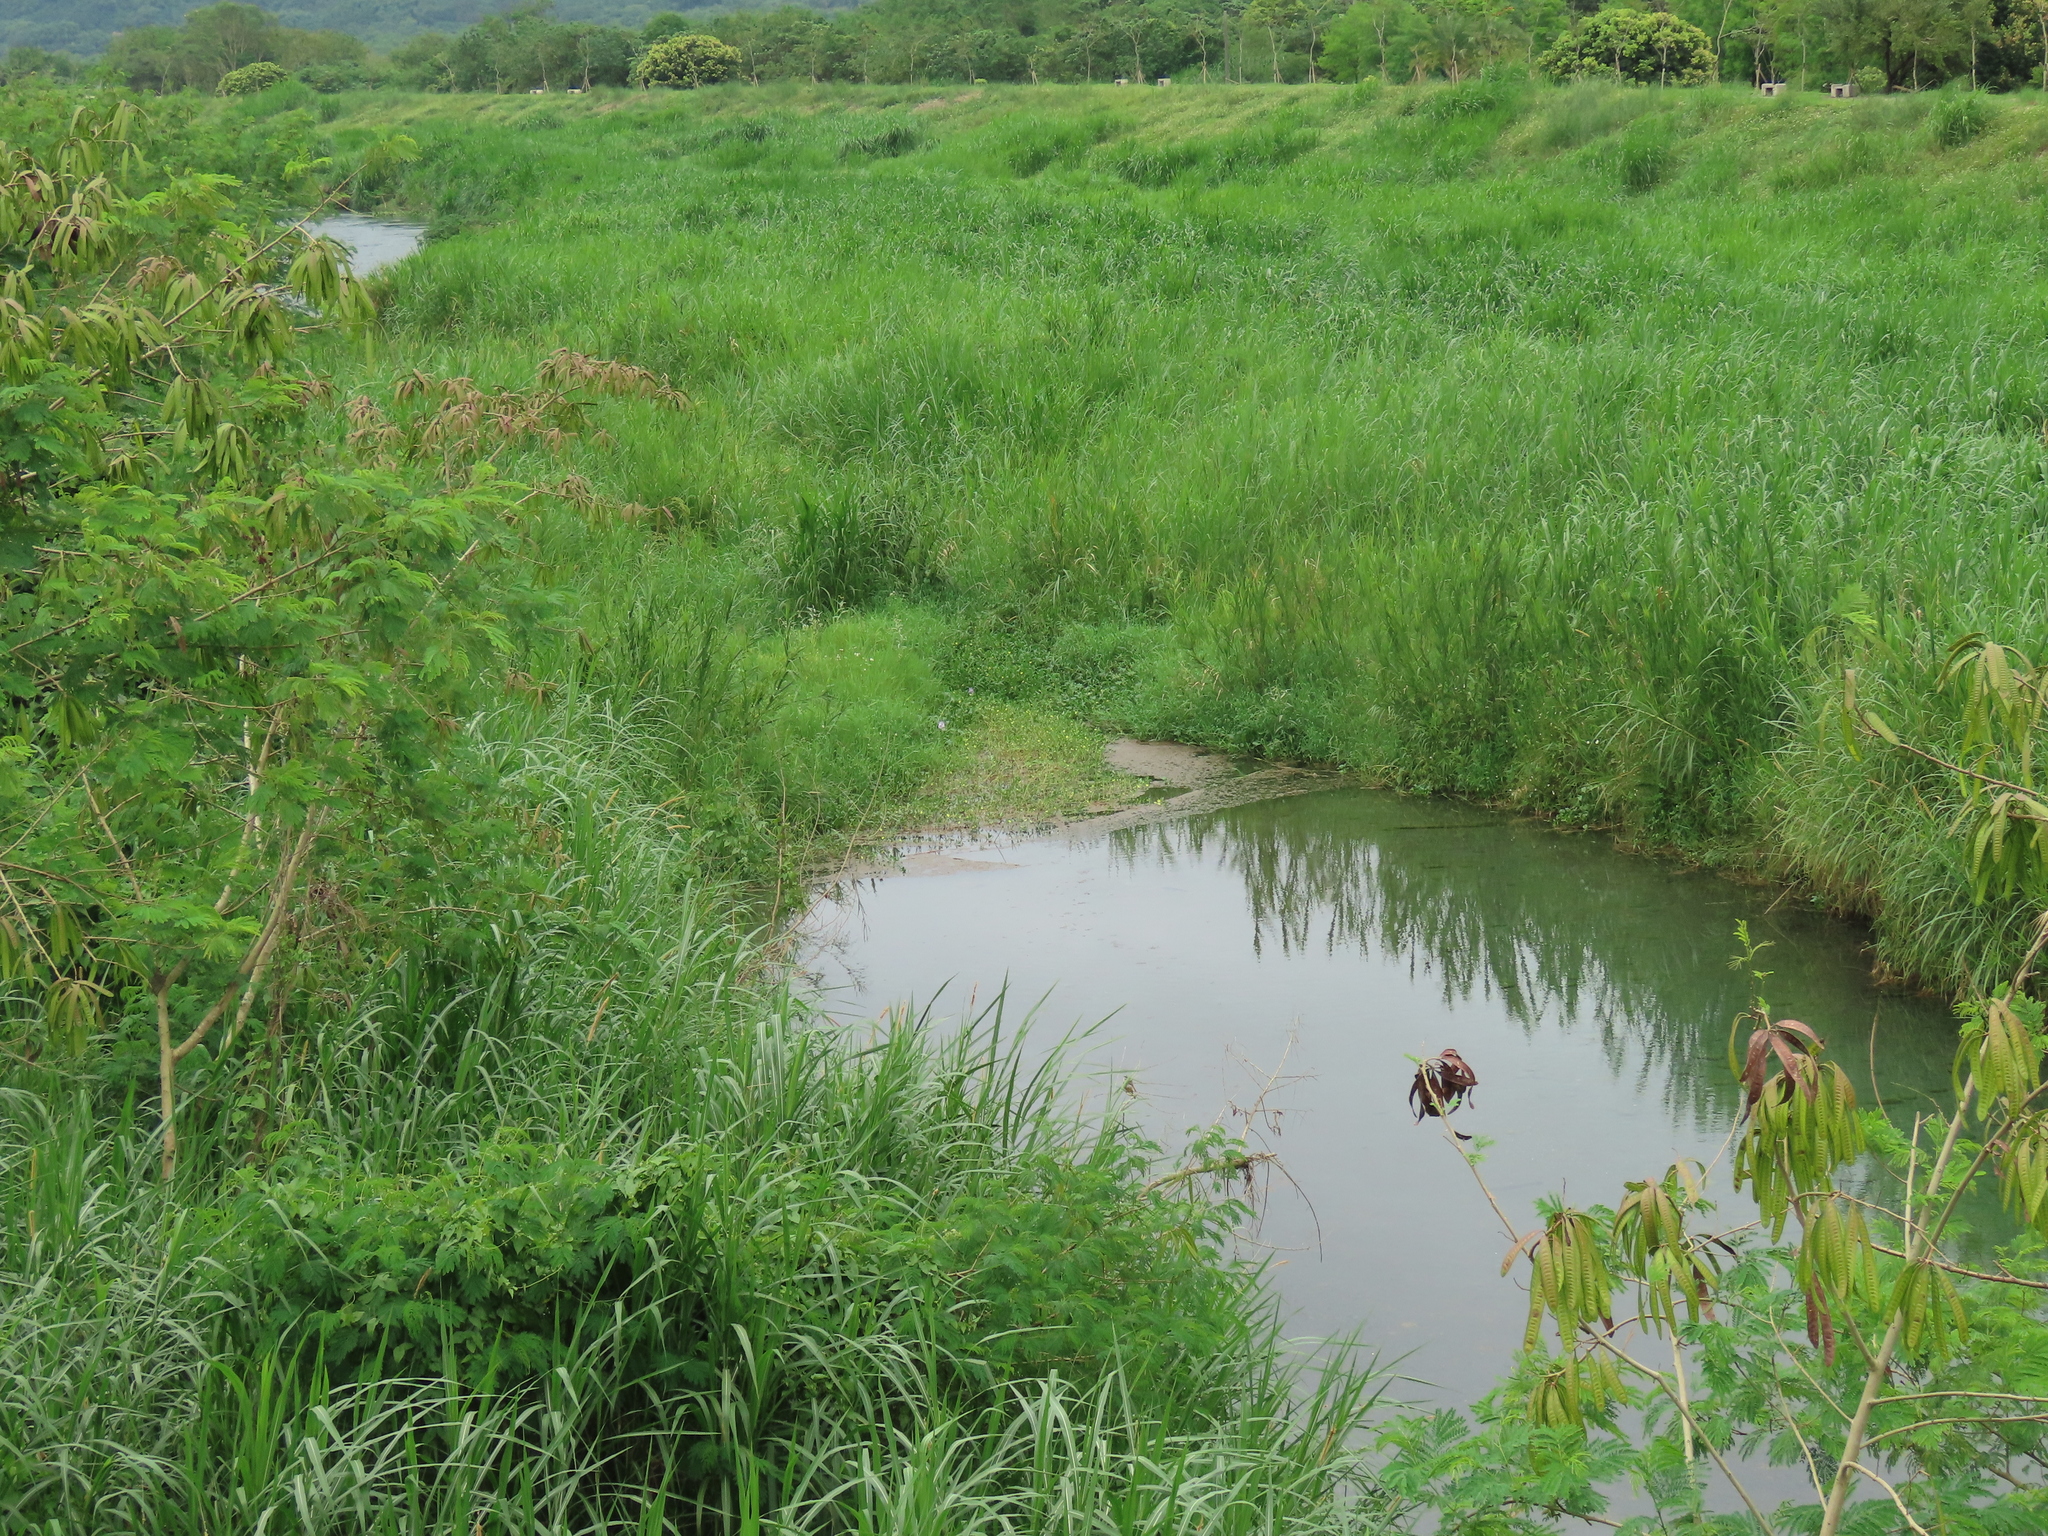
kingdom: Plantae
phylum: Tracheophyta
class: Magnoliopsida
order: Myrtales
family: Onagraceae
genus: Ludwigia
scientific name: Ludwigia taiwanensis
